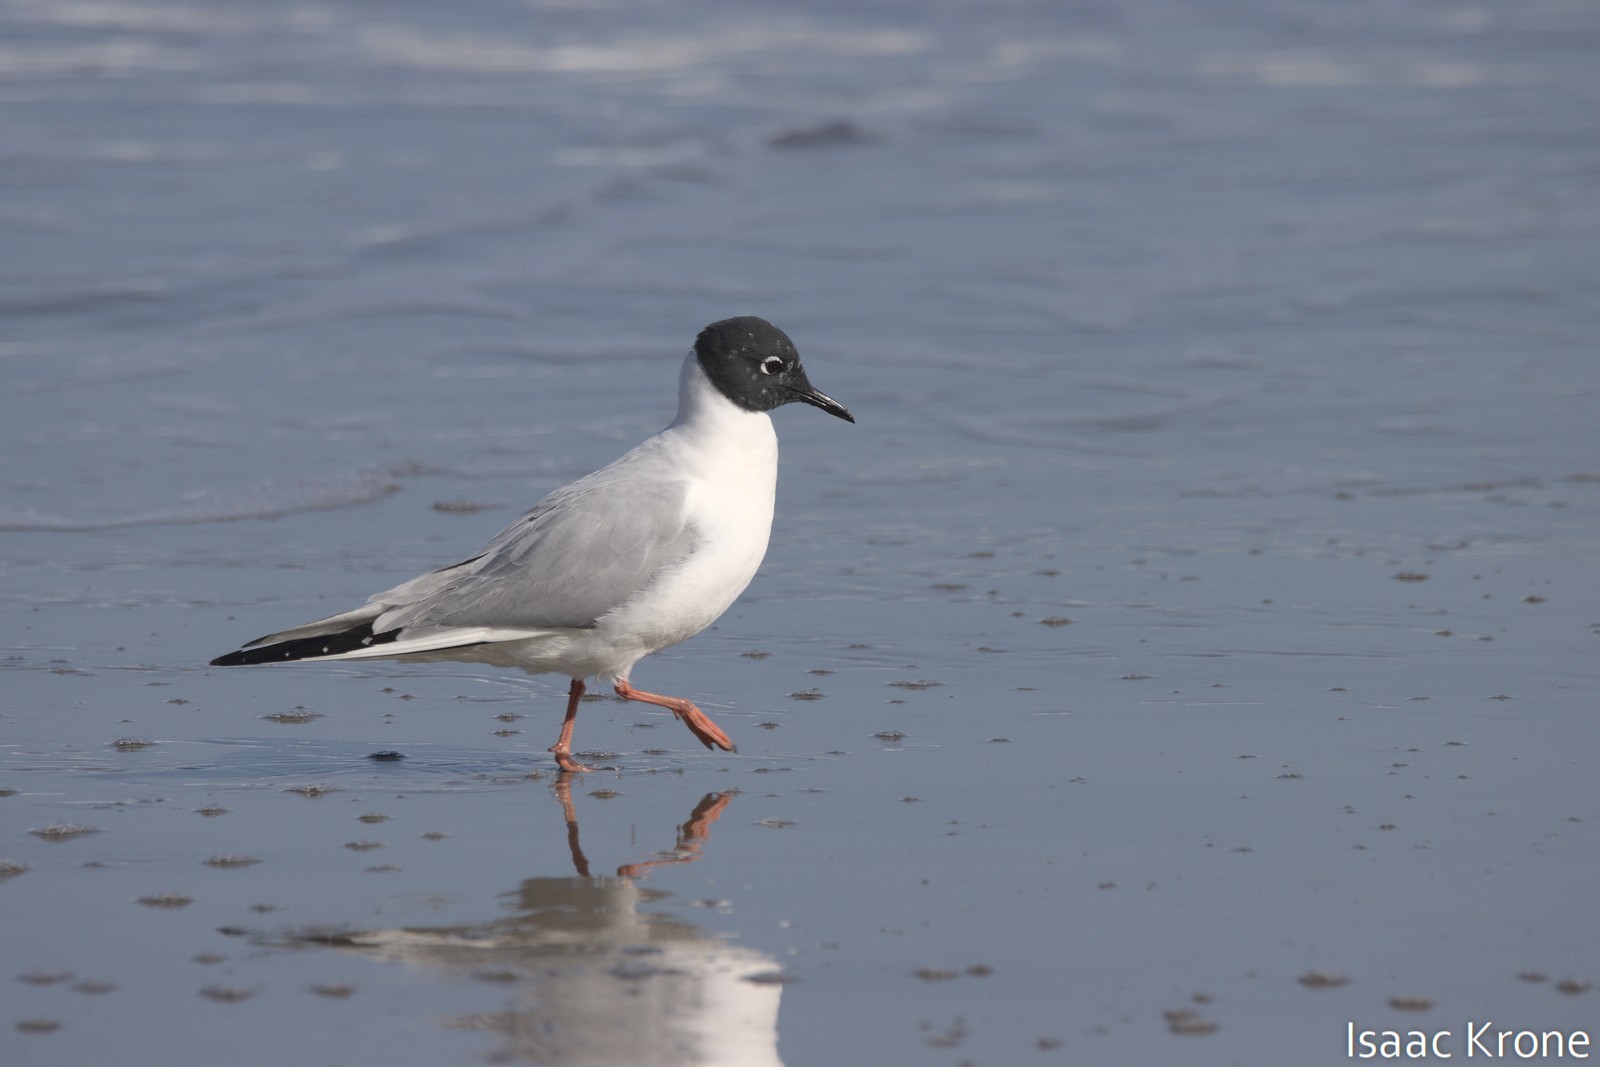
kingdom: Animalia
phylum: Chordata
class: Aves
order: Charadriiformes
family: Laridae
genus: Chroicocephalus
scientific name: Chroicocephalus philadelphia
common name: Bonaparte's gull
